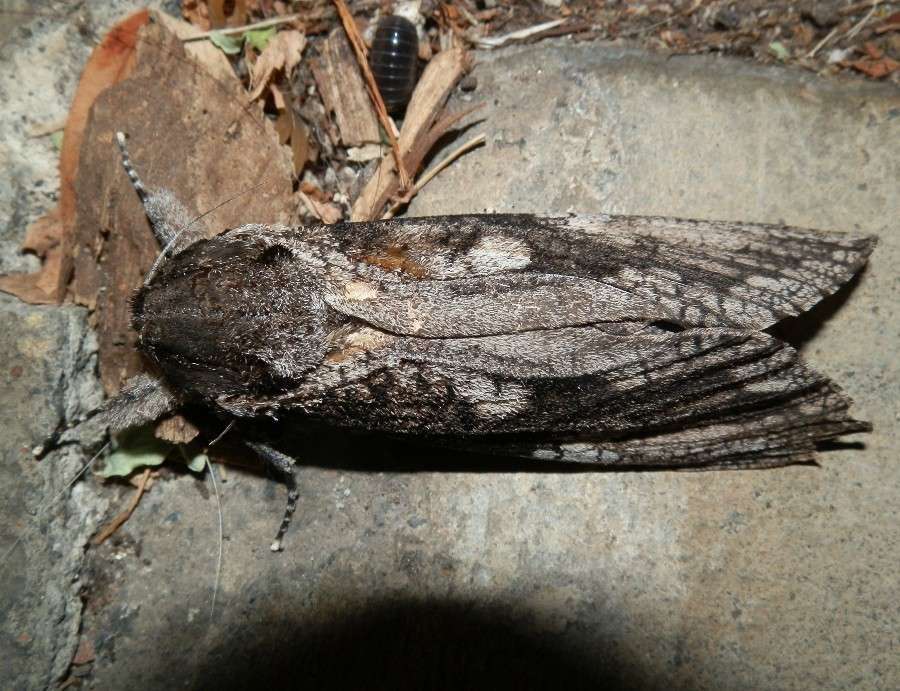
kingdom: Animalia
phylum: Arthropoda
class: Insecta
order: Lepidoptera
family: Cossidae
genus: Endoxyla
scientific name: Endoxyla lichenea
